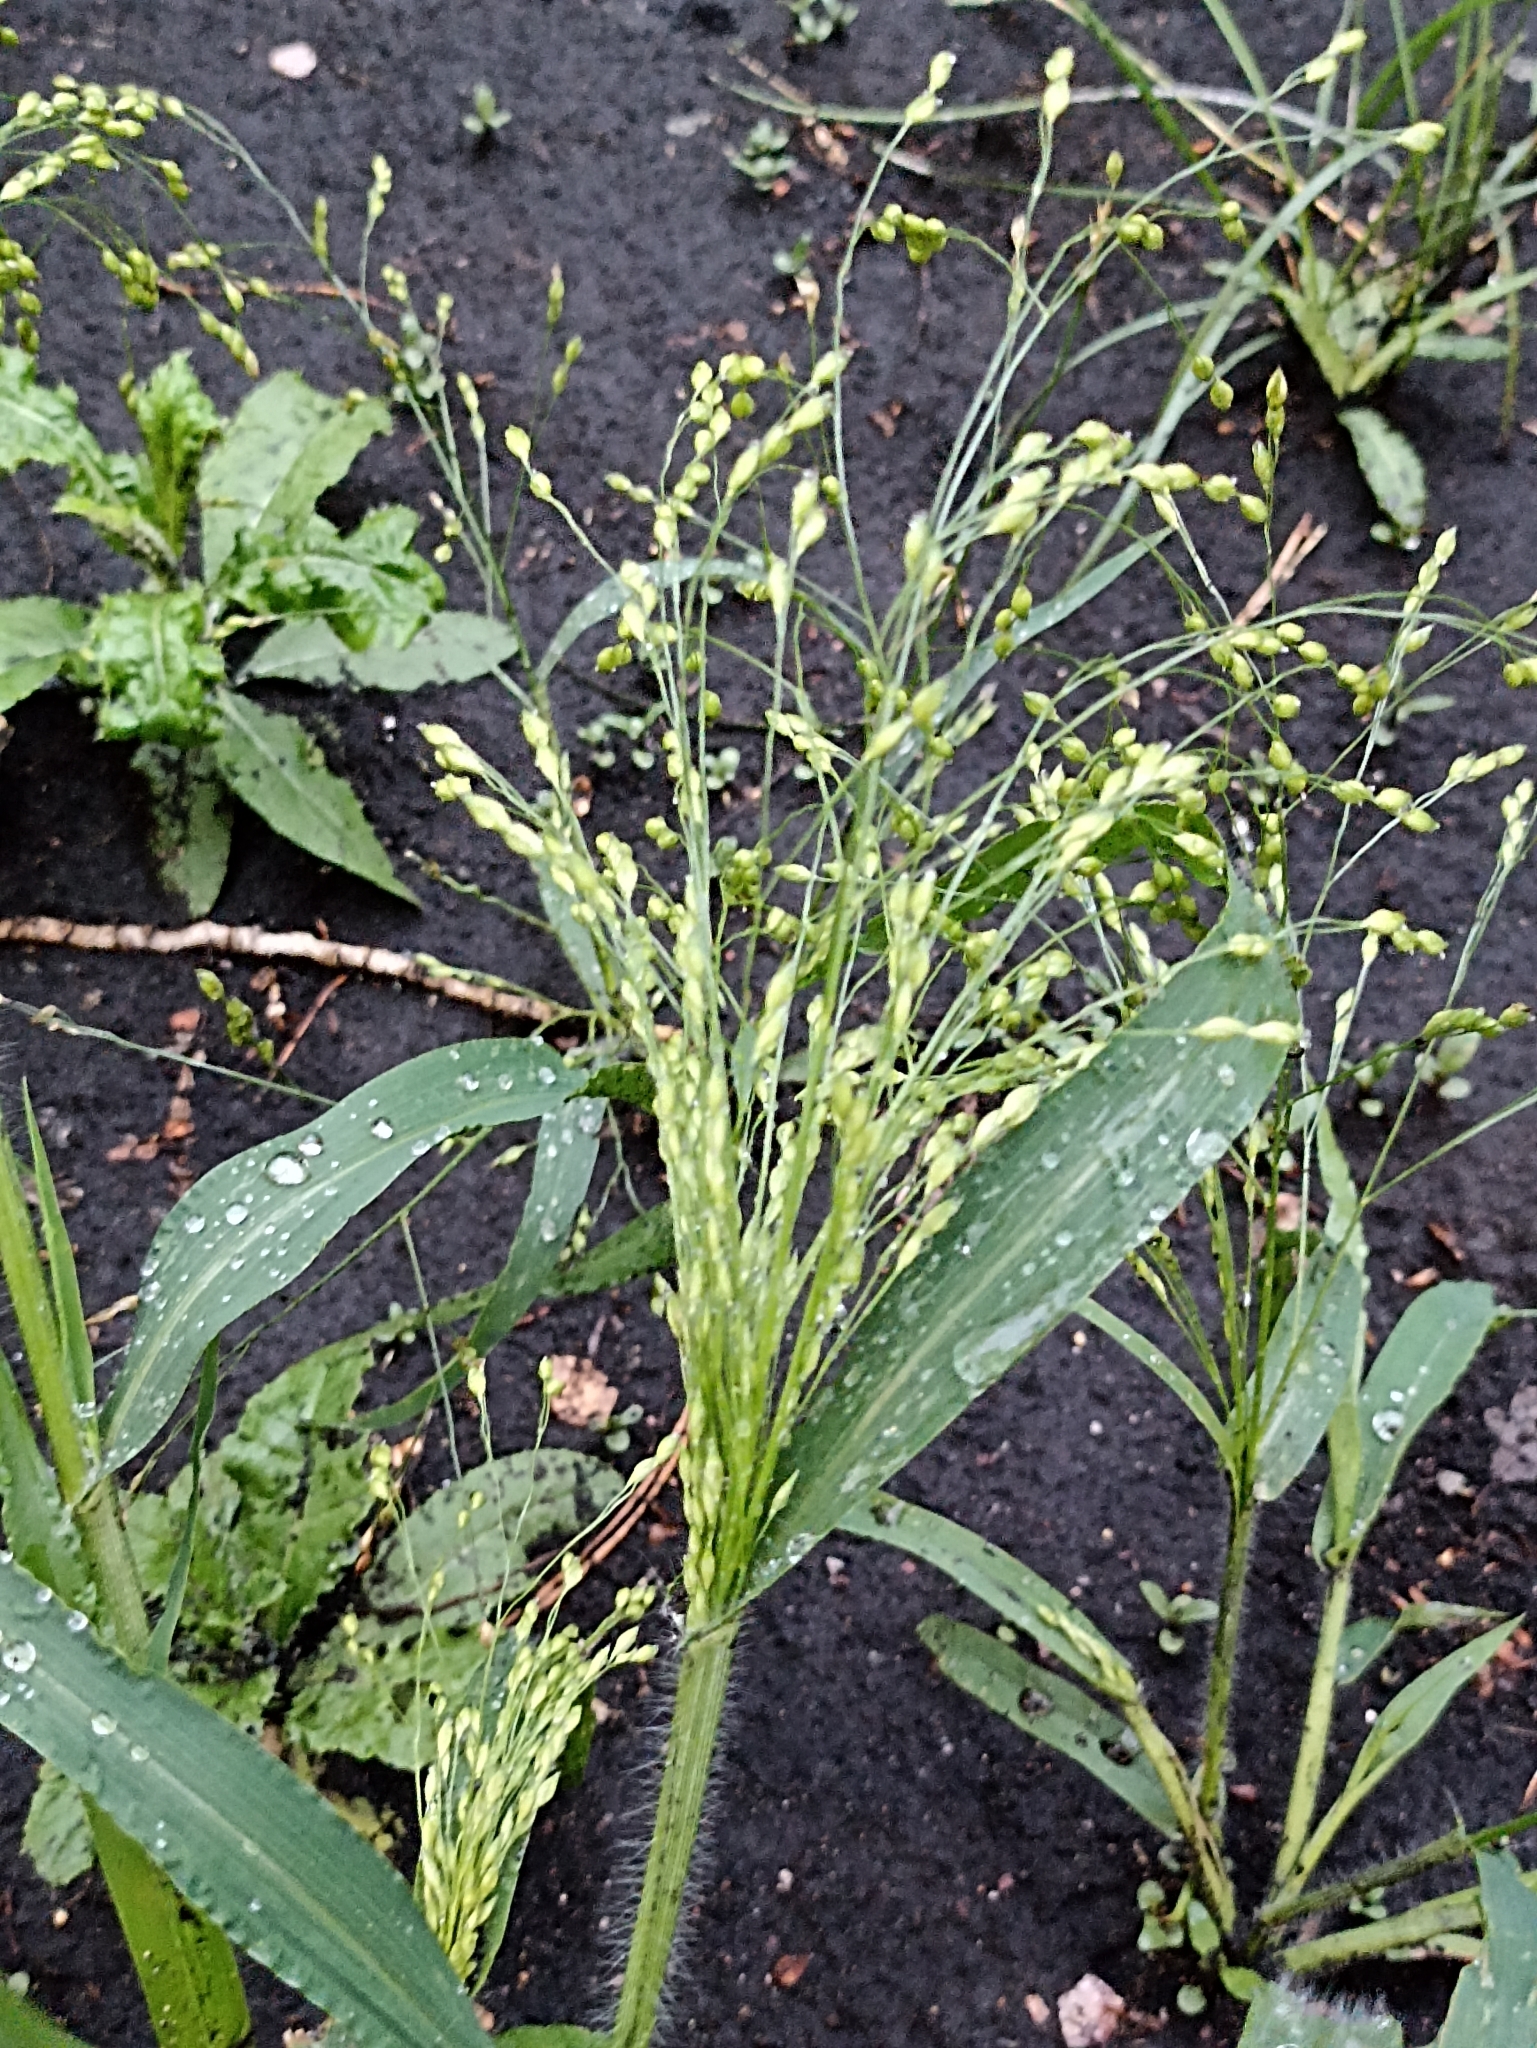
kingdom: Plantae
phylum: Tracheophyta
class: Liliopsida
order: Poales
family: Poaceae
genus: Panicum
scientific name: Panicum miliaceum
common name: Common millet
